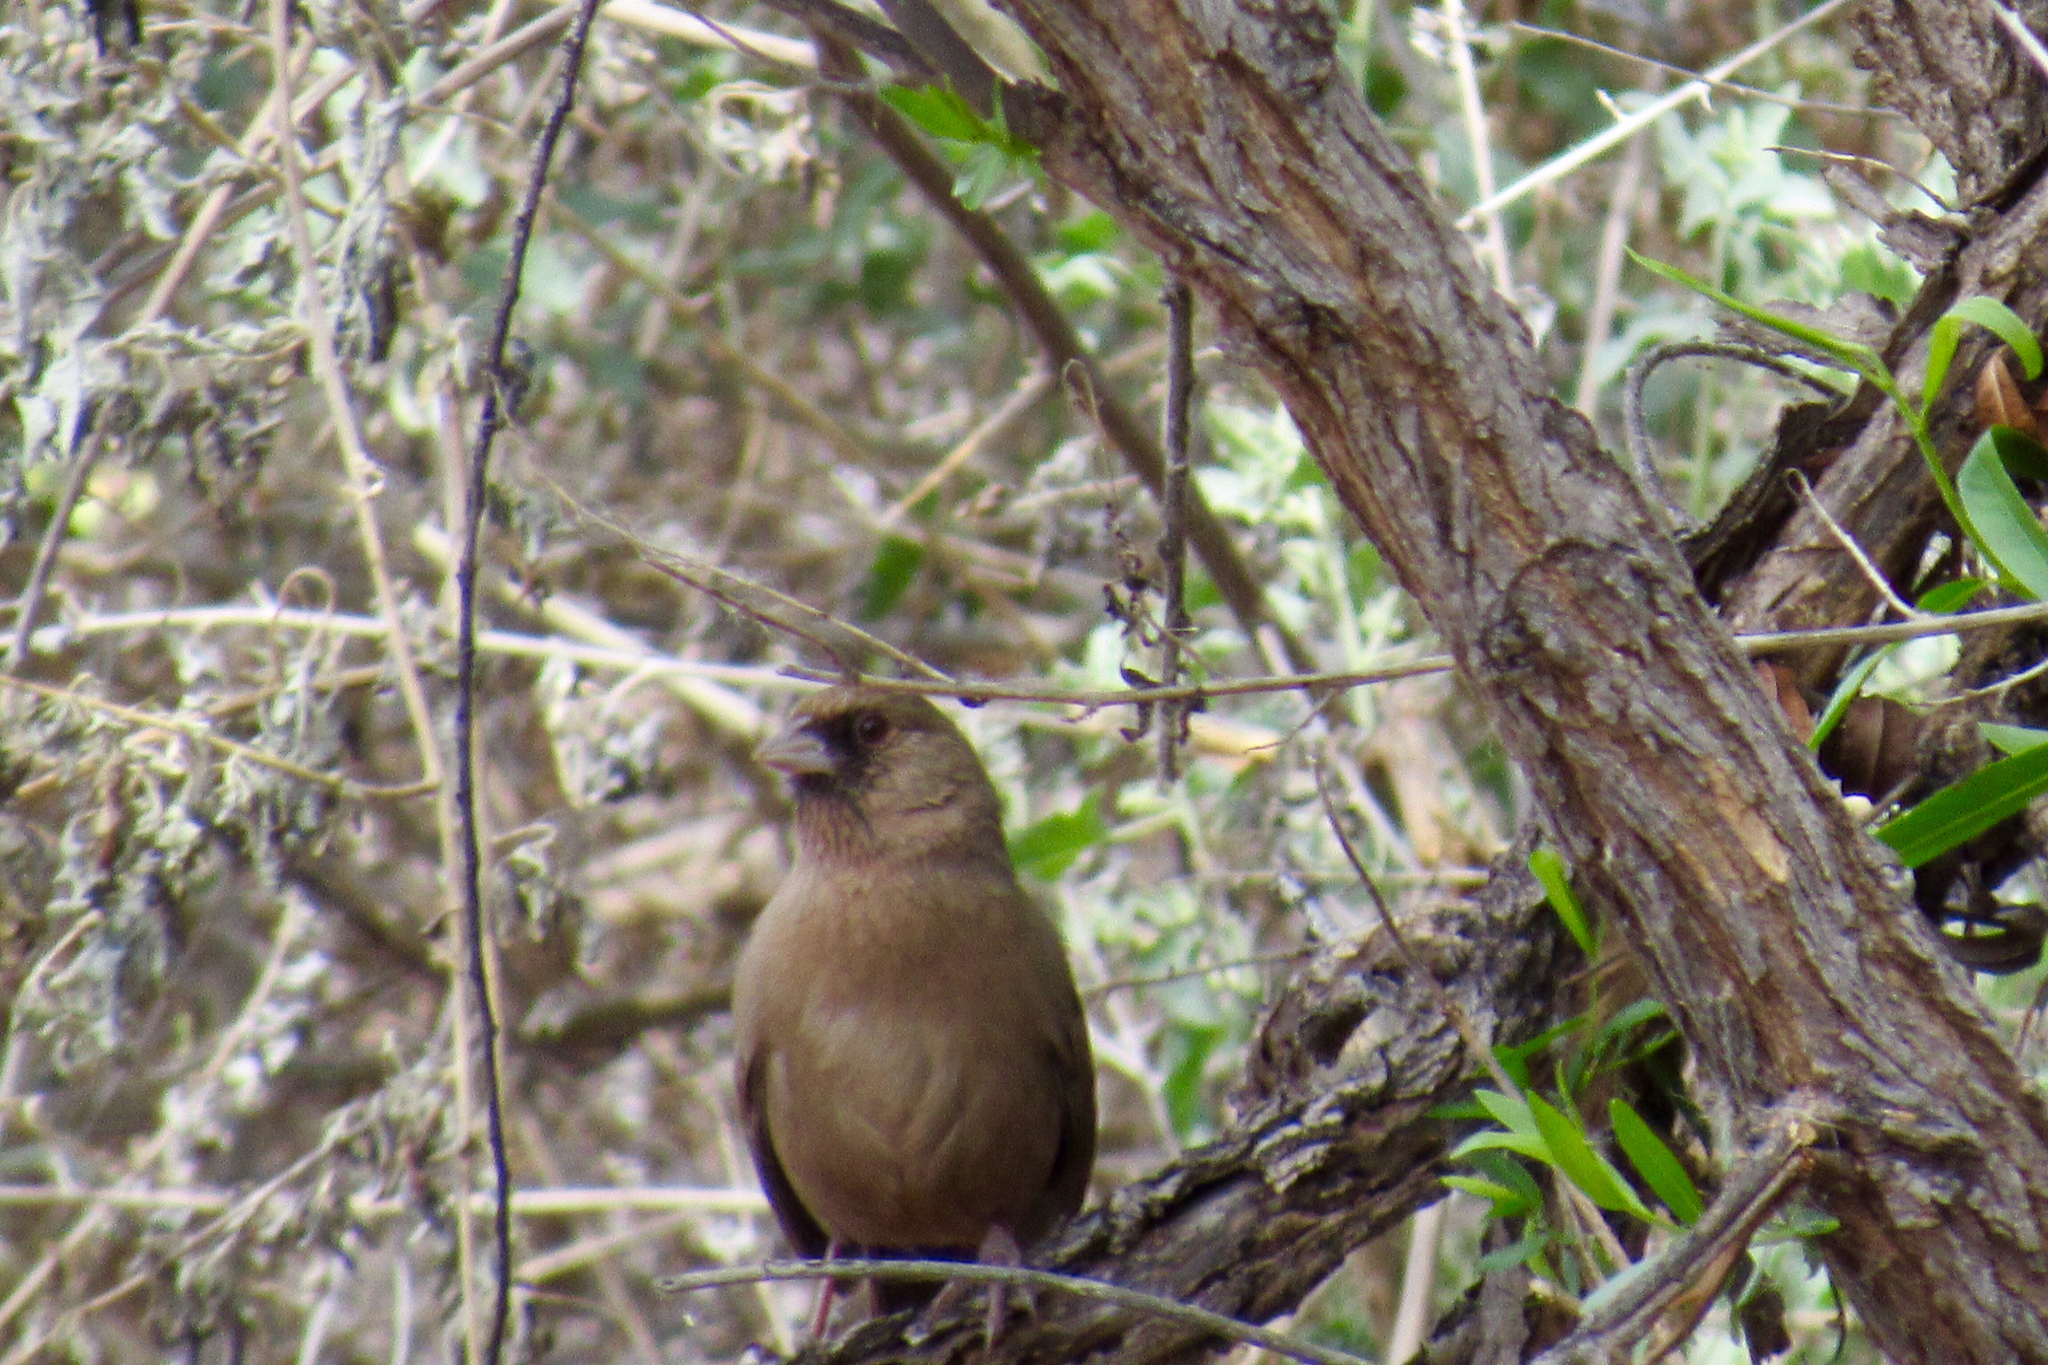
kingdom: Animalia
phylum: Chordata
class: Aves
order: Passeriformes
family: Passerellidae
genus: Melozone
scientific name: Melozone aberti
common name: Abert's towhee
